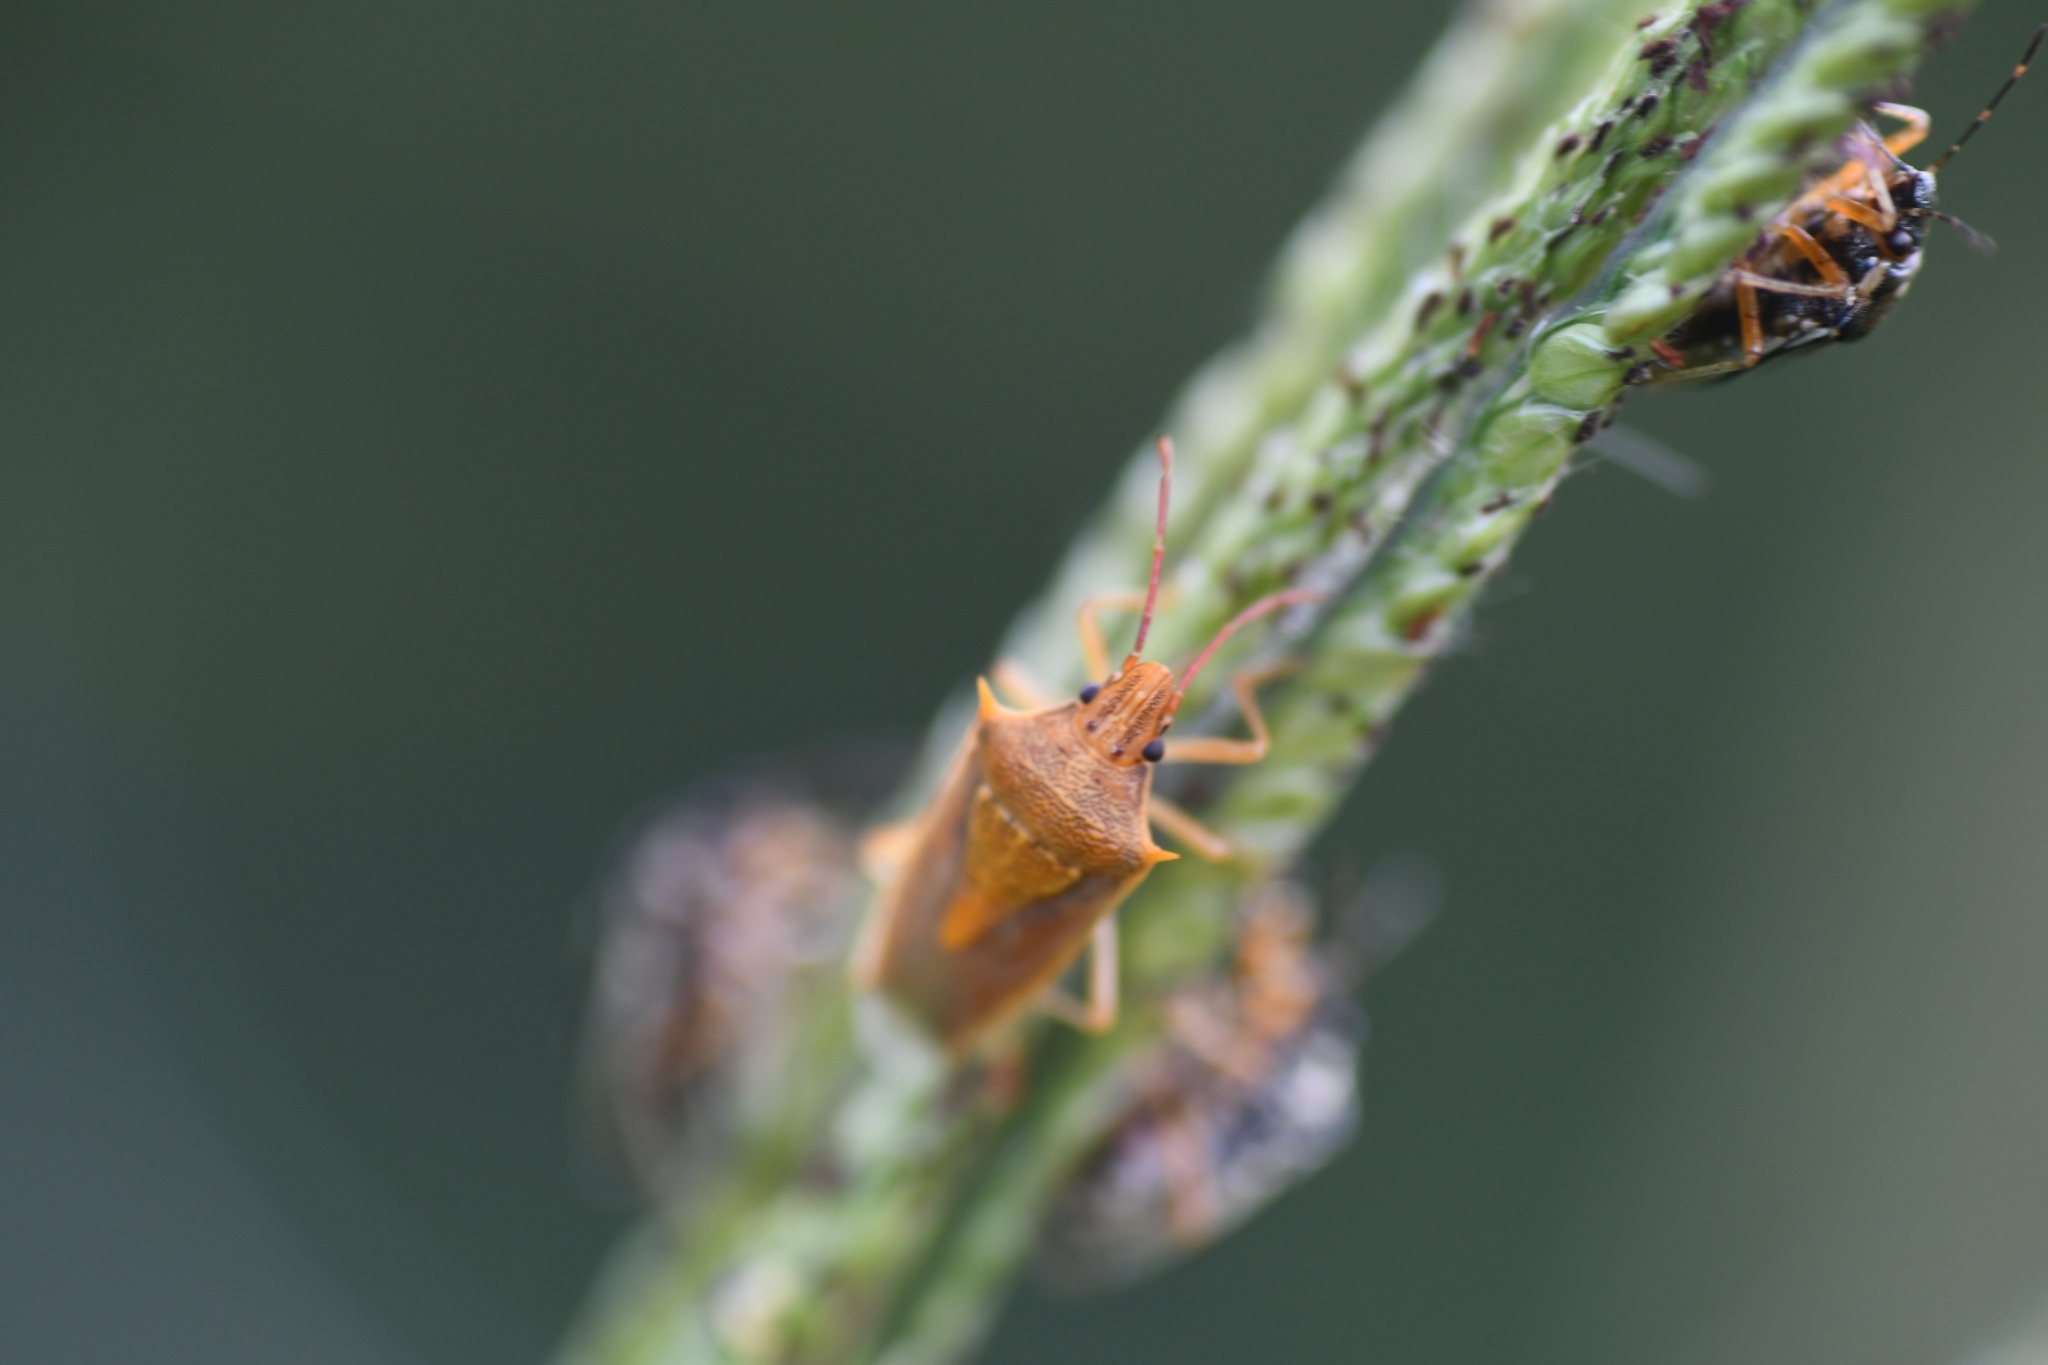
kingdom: Animalia
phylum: Arthropoda
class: Insecta
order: Hemiptera
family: Pentatomidae
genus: Oebalus
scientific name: Oebalus pugnax
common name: Rice stink bug
